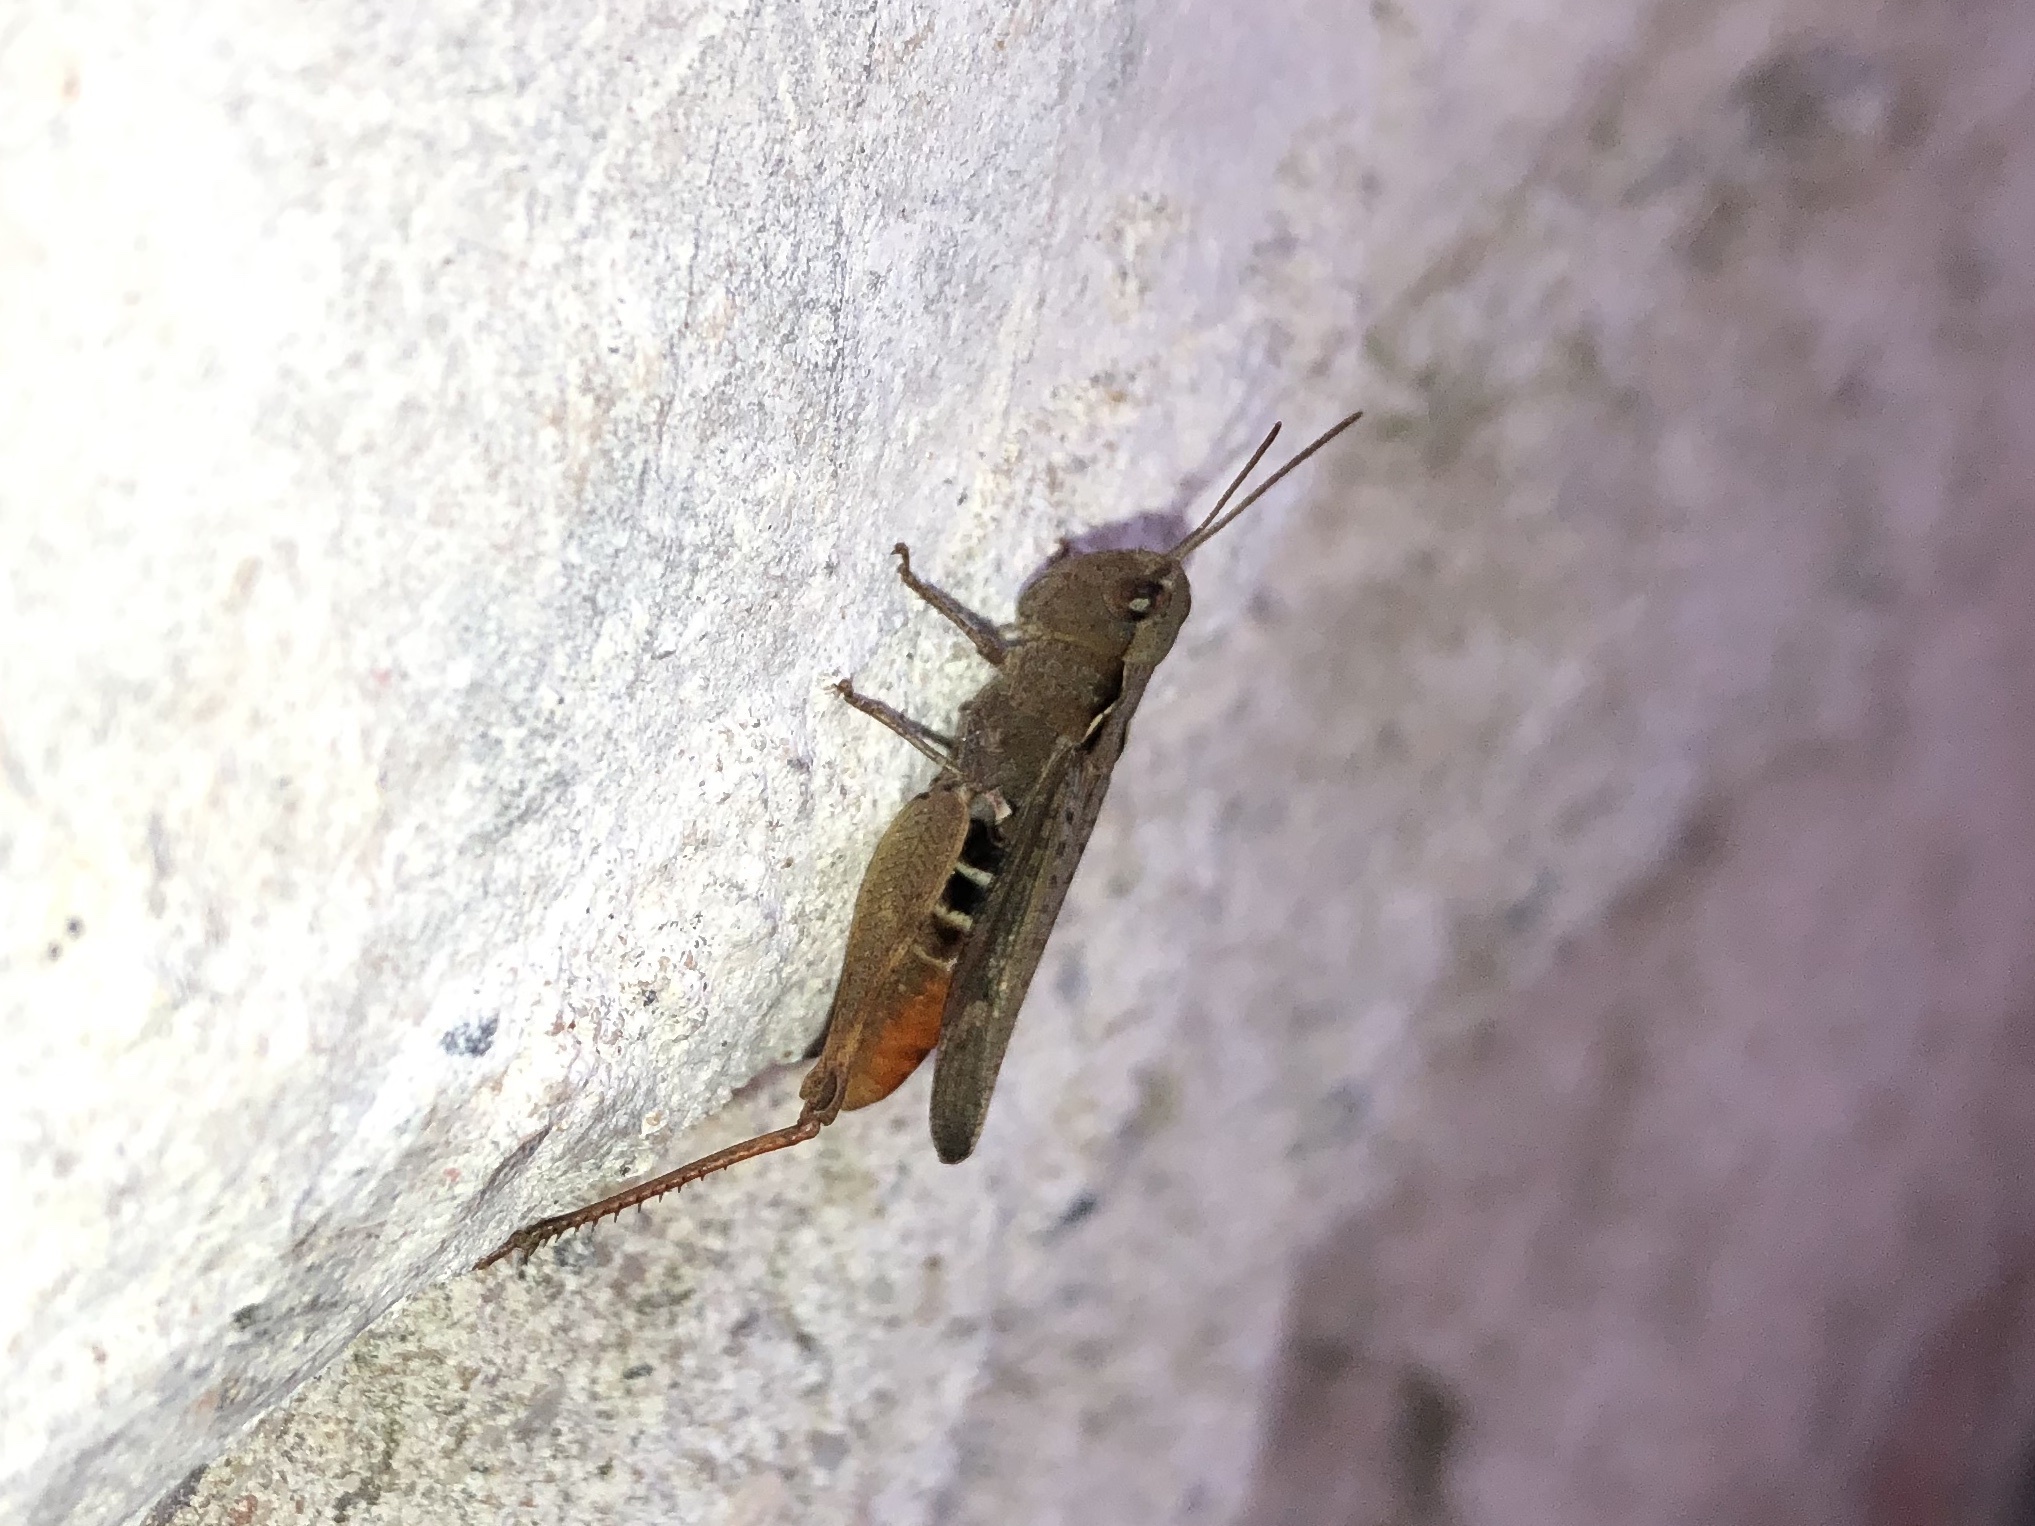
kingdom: Animalia
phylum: Arthropoda
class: Insecta
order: Orthoptera
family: Acrididae
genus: Chorthippus
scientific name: Chorthippus vagans
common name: Heath grasshopper
